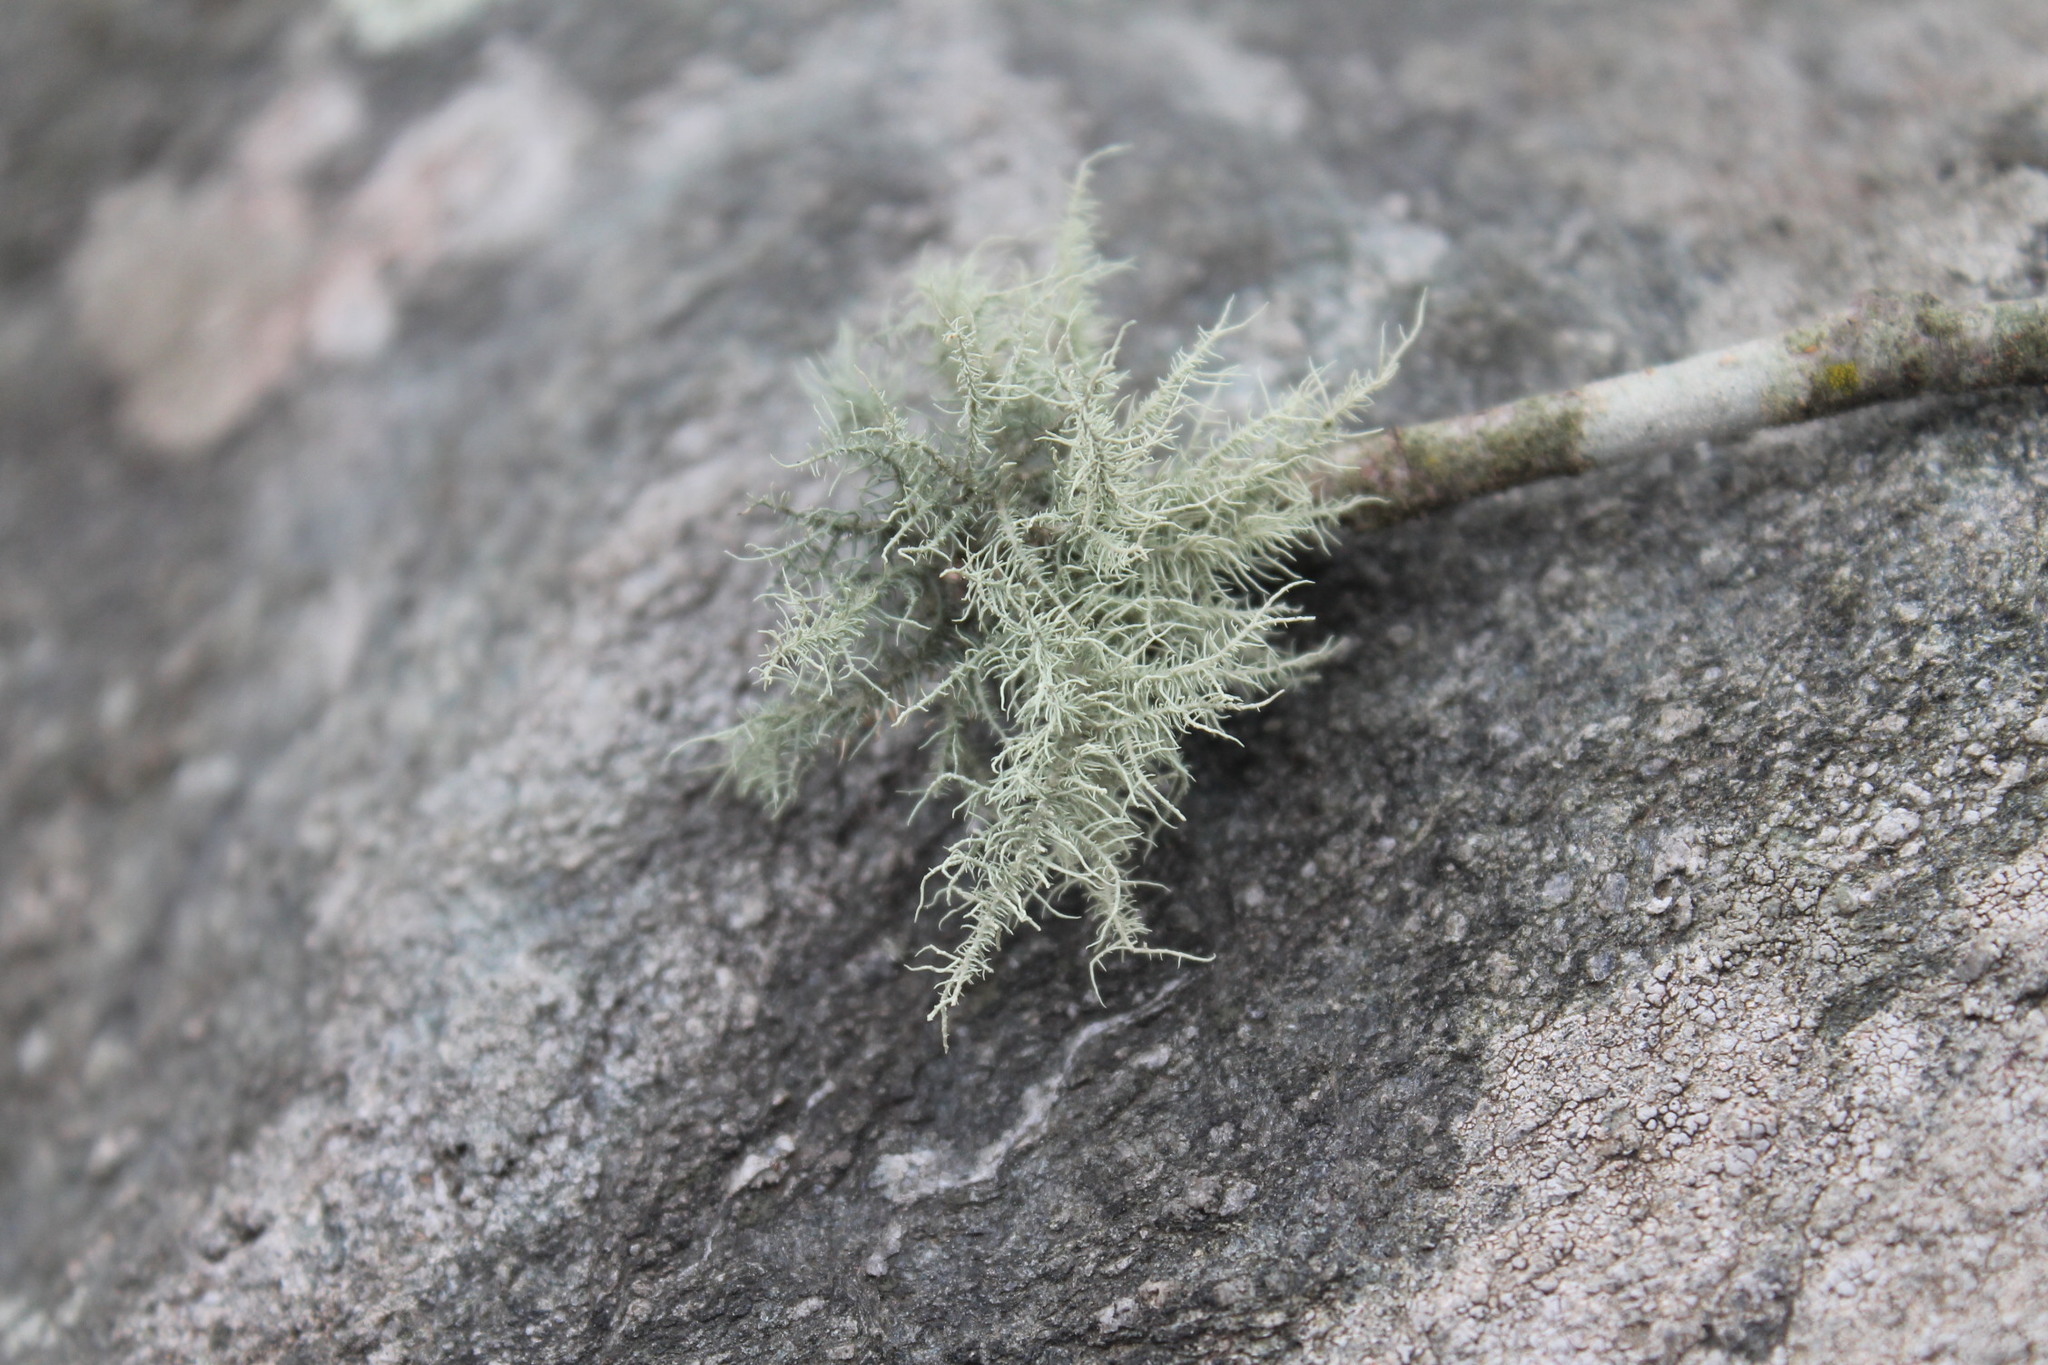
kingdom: Fungi
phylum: Ascomycota
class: Lecanoromycetes
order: Lecanorales
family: Parmeliaceae
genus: Usnea
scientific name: Usnea hirta
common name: Bristly beard lichen
